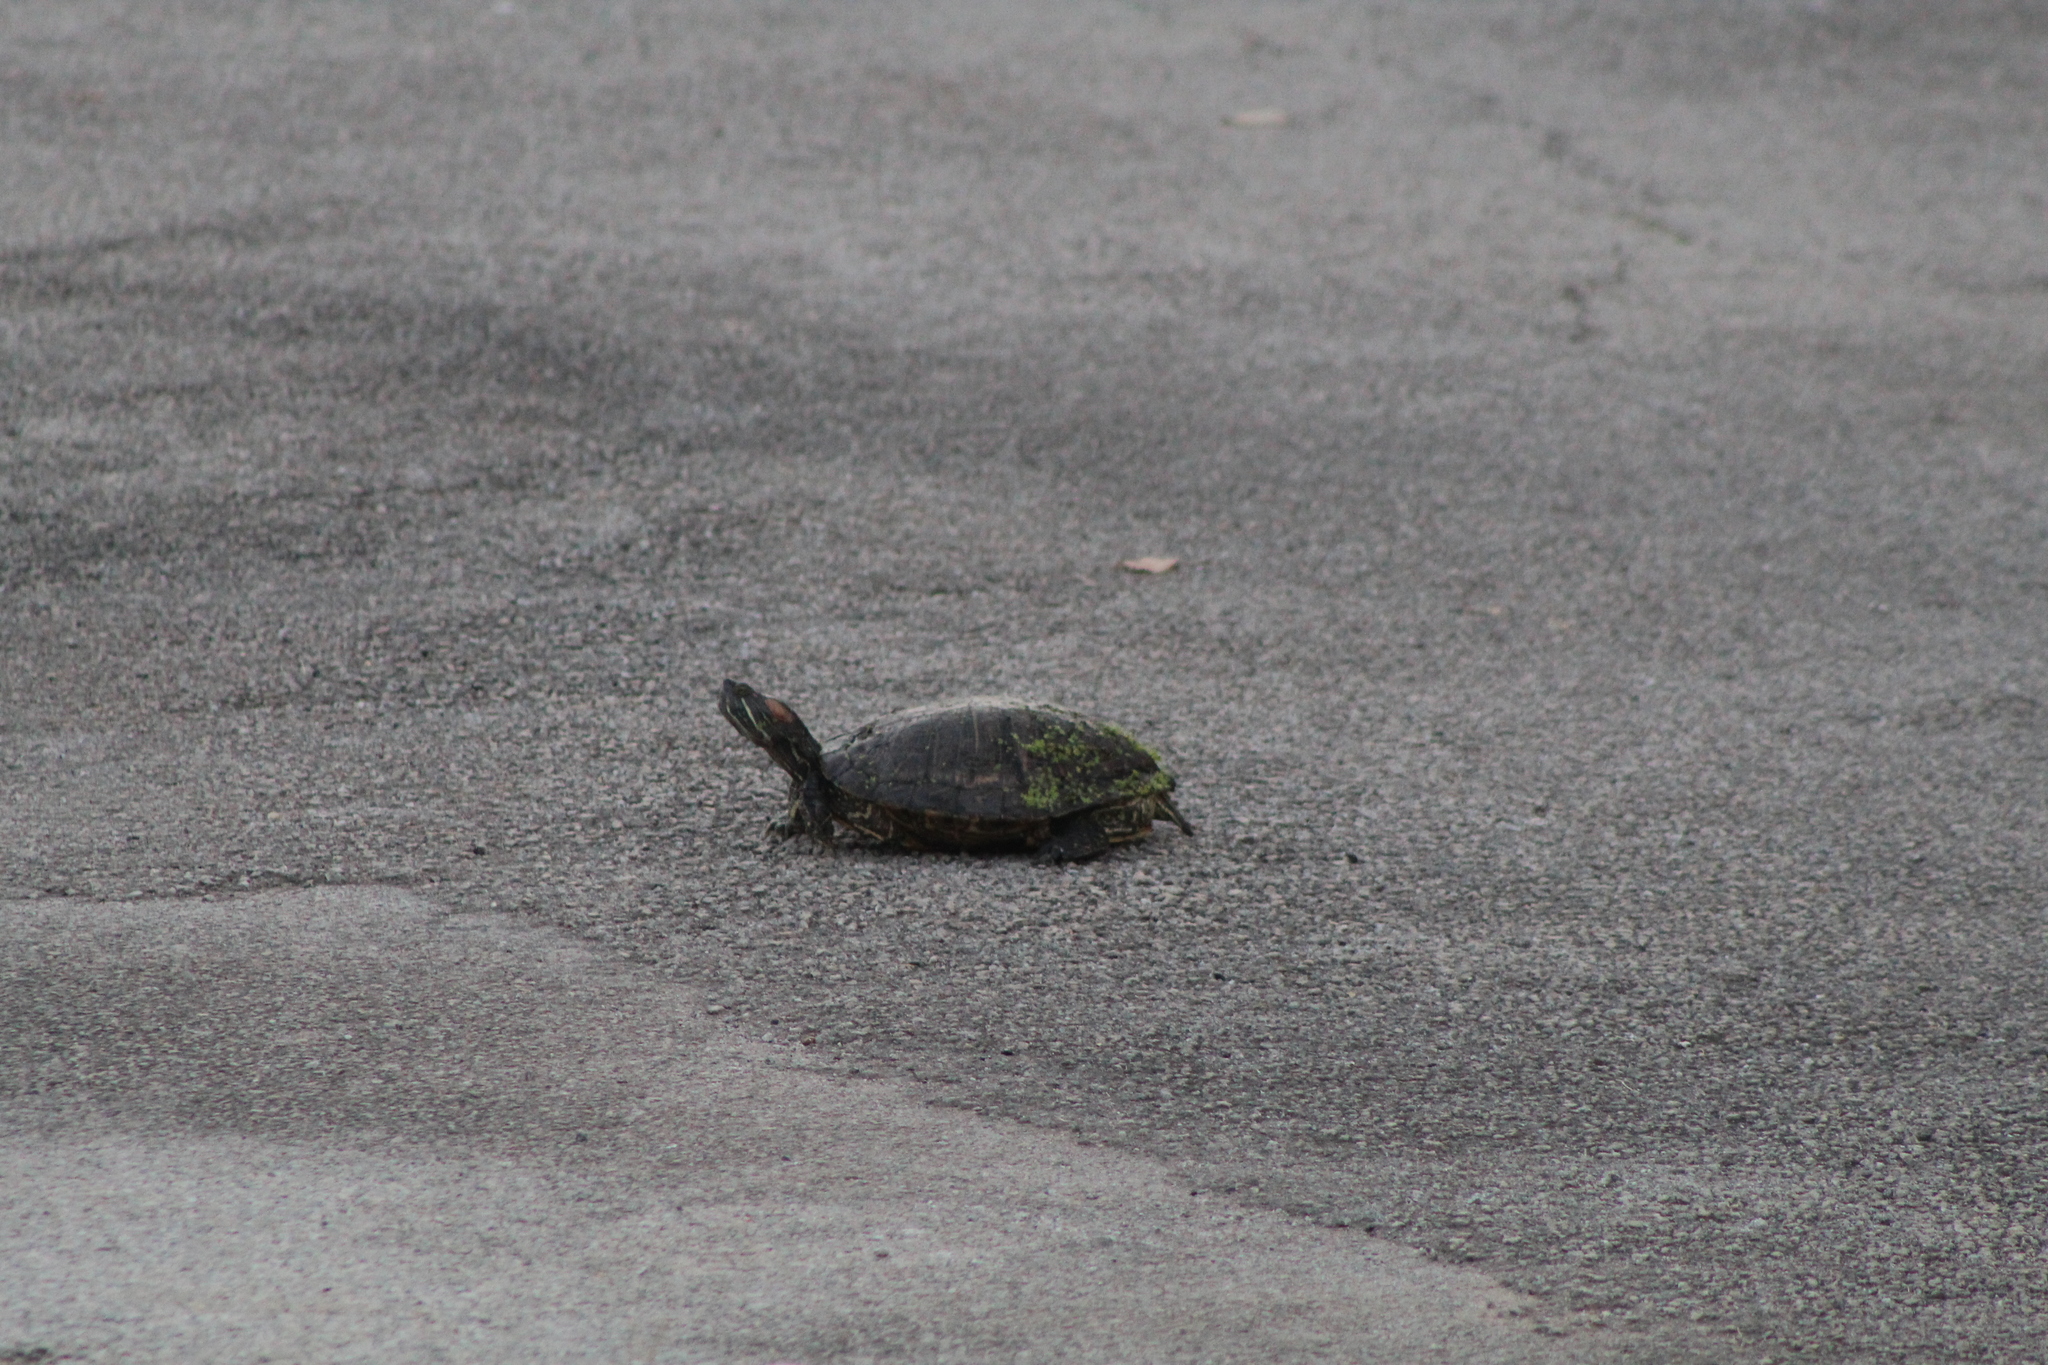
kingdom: Animalia
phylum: Chordata
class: Testudines
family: Emydidae
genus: Trachemys
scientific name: Trachemys scripta
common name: Slider
